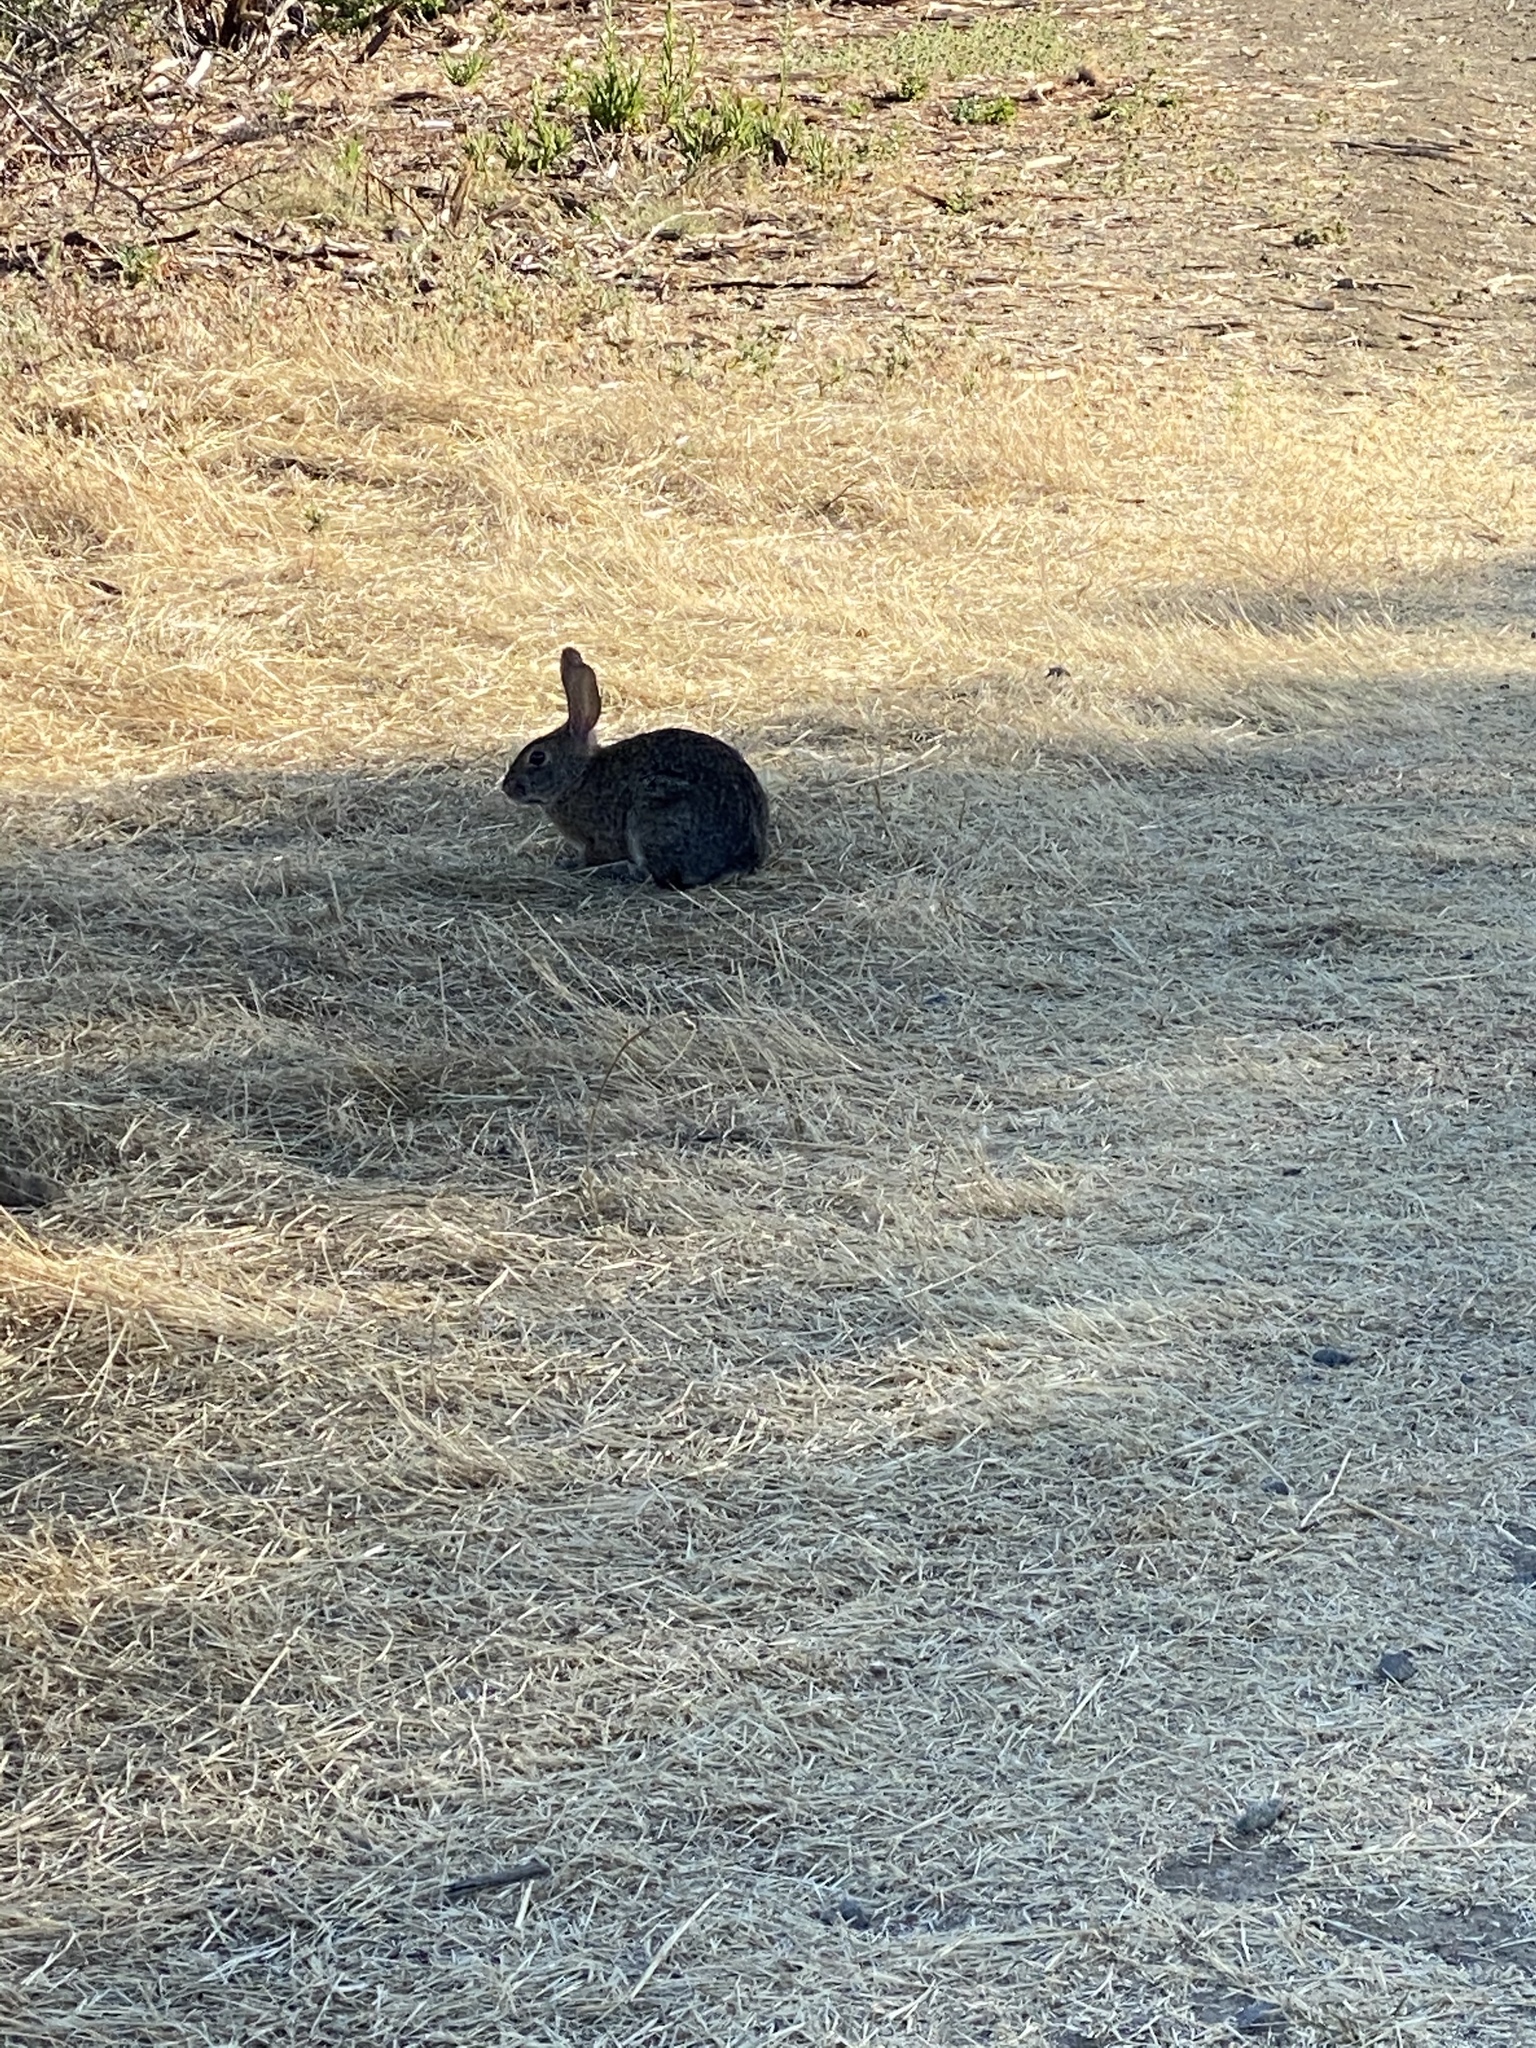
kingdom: Animalia
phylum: Chordata
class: Mammalia
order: Lagomorpha
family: Leporidae
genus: Sylvilagus
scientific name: Sylvilagus bachmani
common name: Brush rabbit
